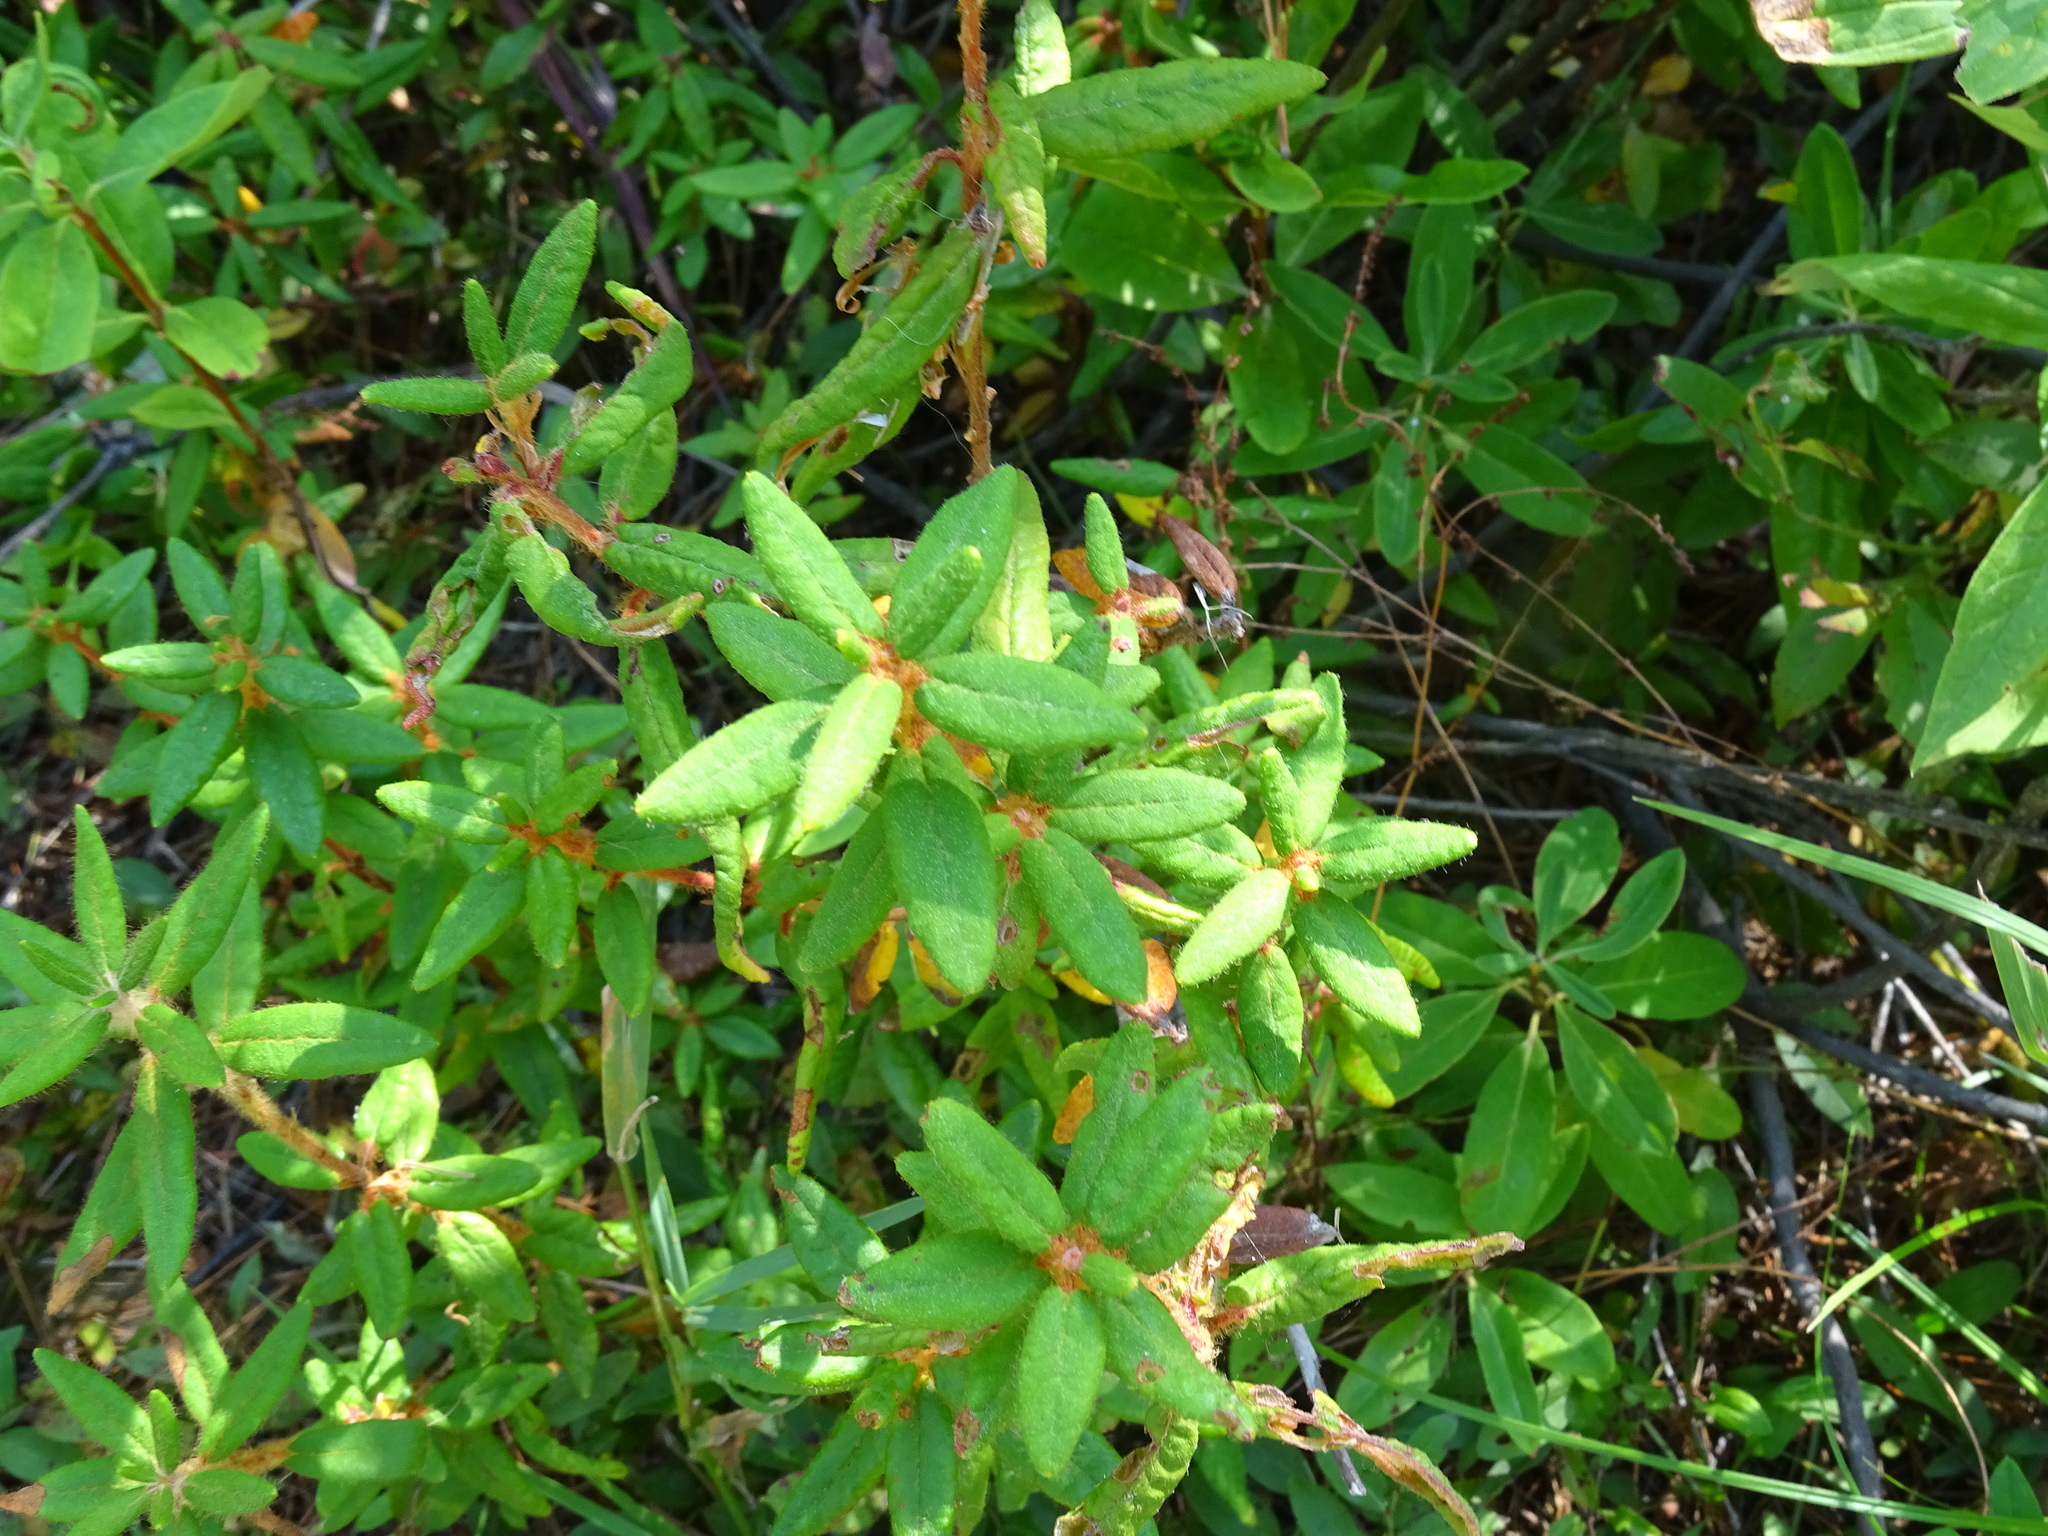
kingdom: Plantae
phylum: Tracheophyta
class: Magnoliopsida
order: Ericales
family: Ericaceae
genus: Rhododendron
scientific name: Rhododendron groenlandicum
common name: Bog labrador tea
